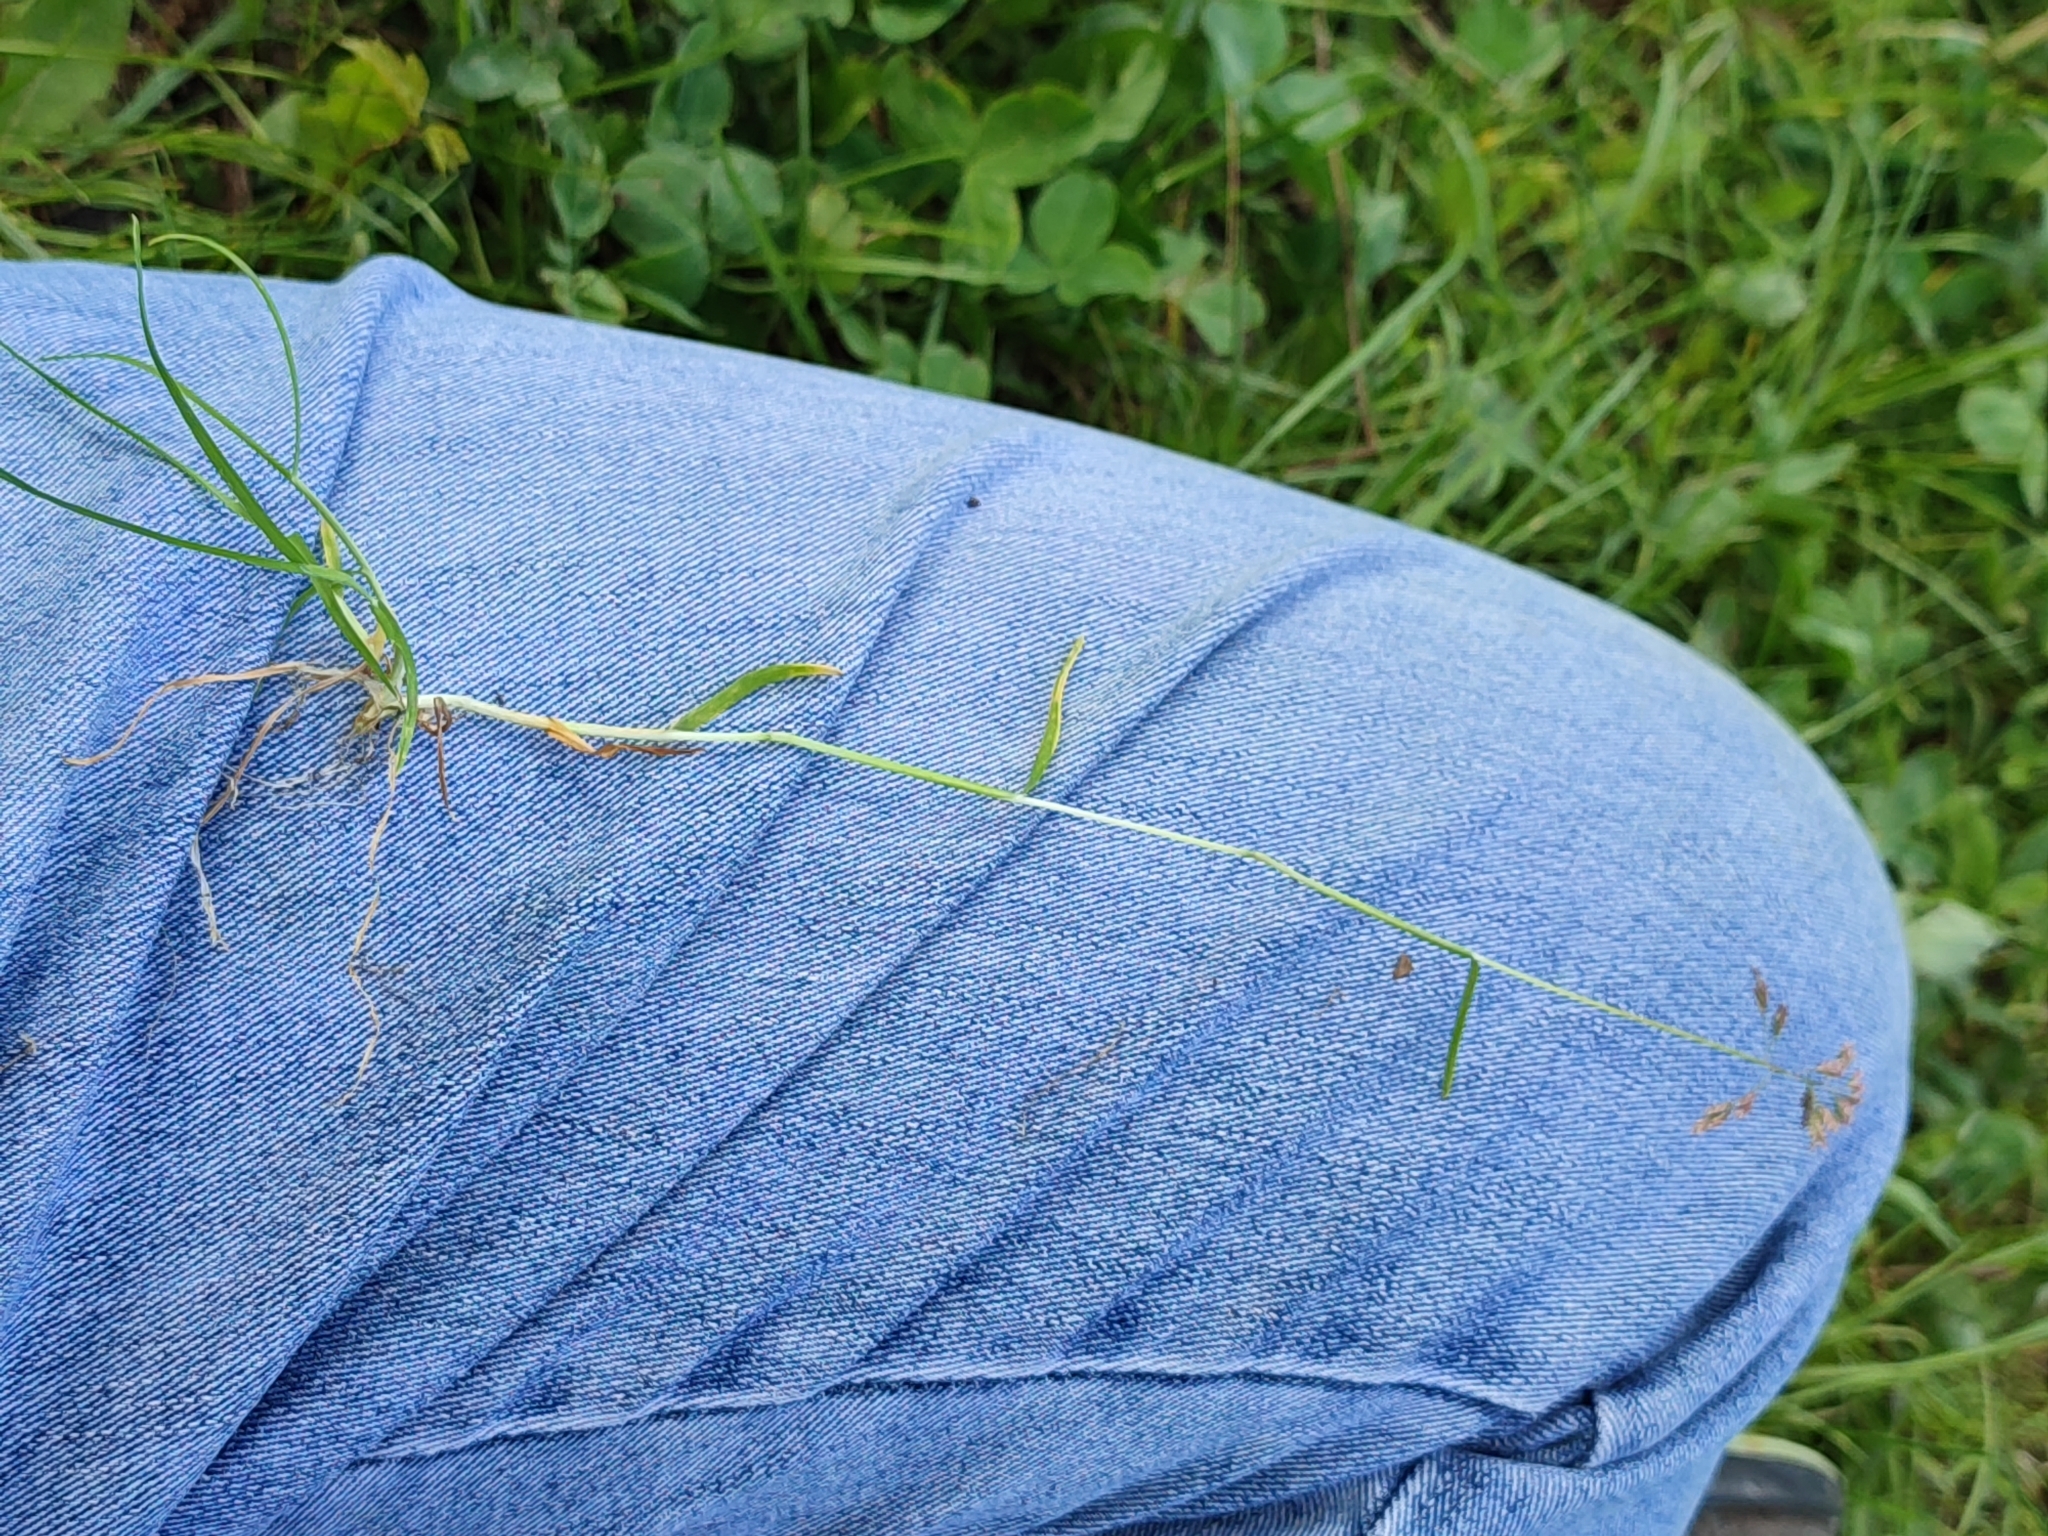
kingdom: Plantae
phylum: Tracheophyta
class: Liliopsida
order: Poales
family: Poaceae
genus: Poa
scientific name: Poa annua
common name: Annual bluegrass
